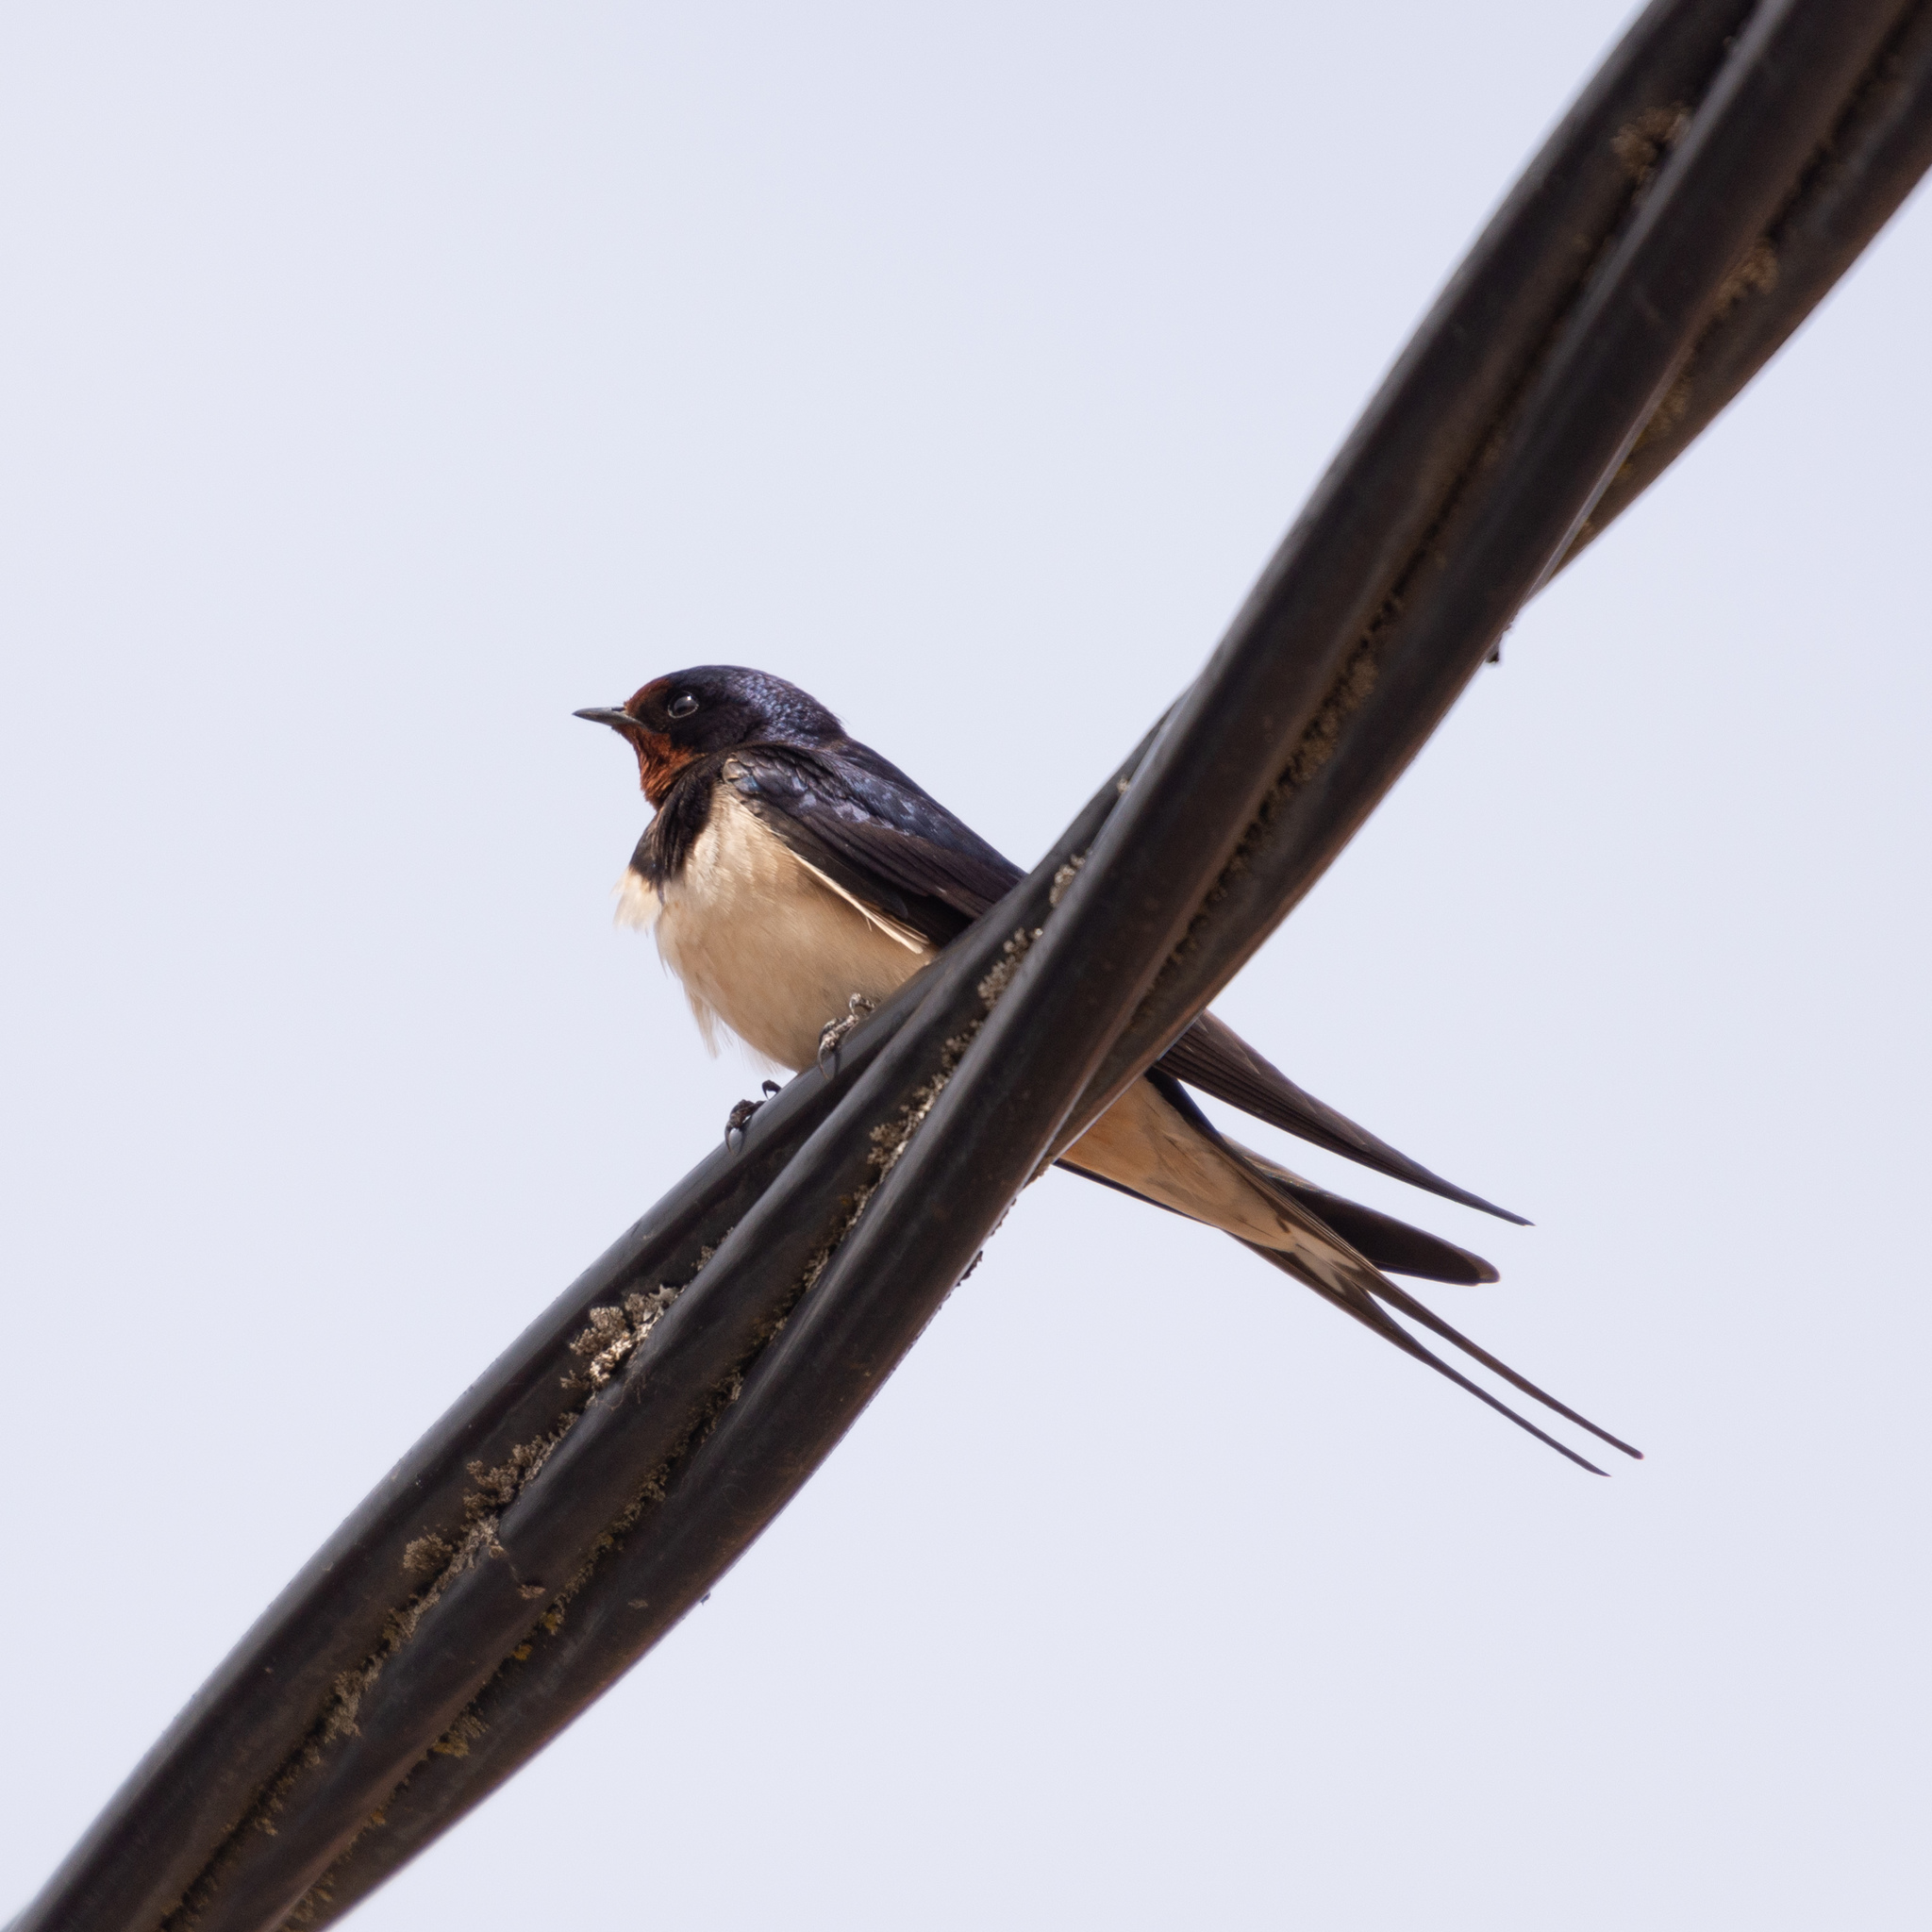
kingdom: Animalia
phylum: Chordata
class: Aves
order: Passeriformes
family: Hirundinidae
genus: Hirundo
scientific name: Hirundo rustica
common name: Barn swallow
